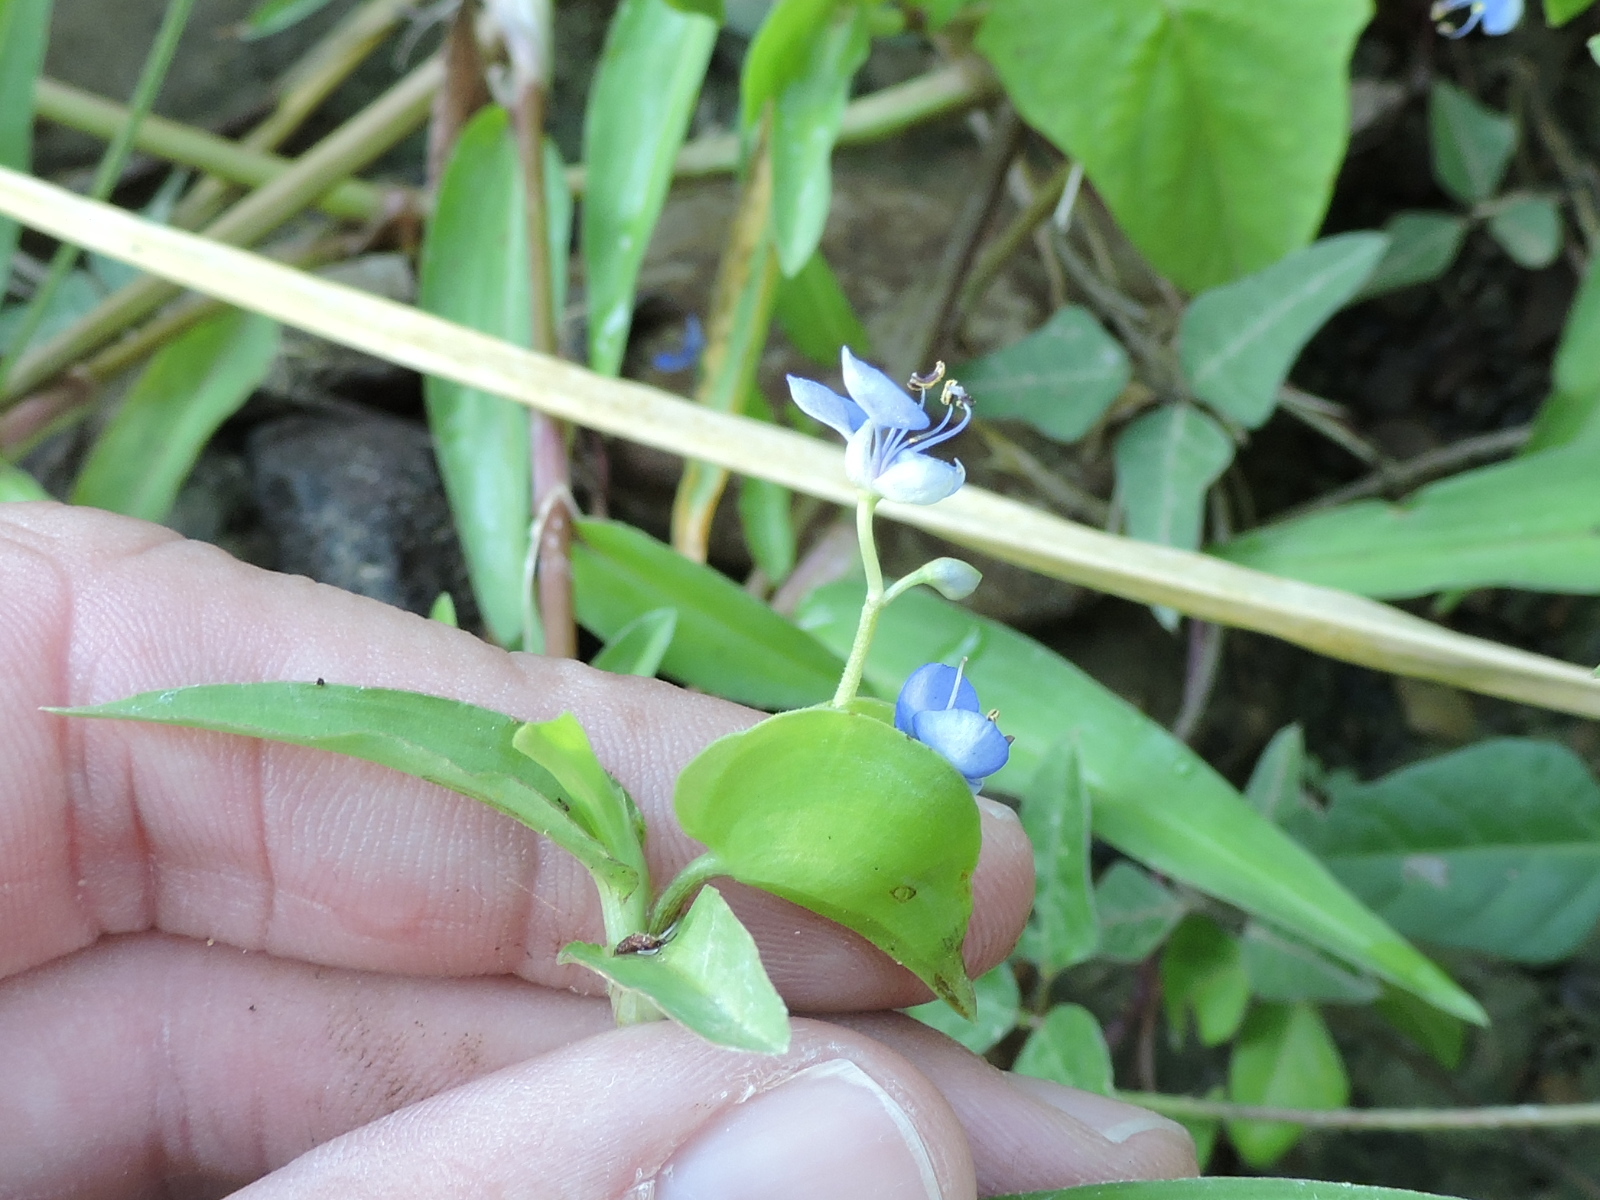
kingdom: Plantae
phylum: Tracheophyta
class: Liliopsida
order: Commelinales
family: Commelinaceae
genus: Commelina
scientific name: Commelina diffusa
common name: Climbing dayflower
